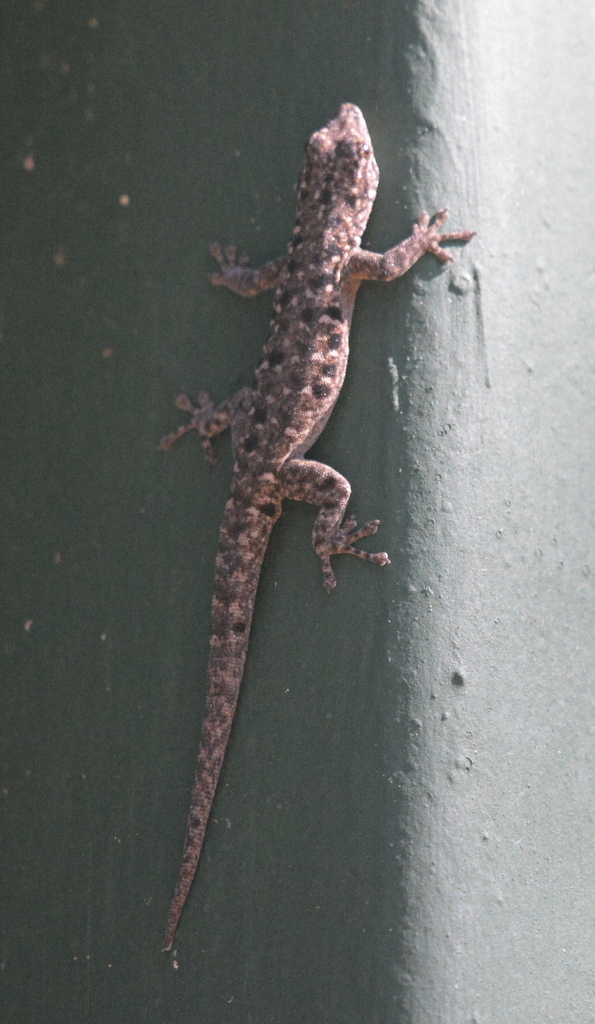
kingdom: Animalia
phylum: Chordata
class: Squamata
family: Gekkonidae
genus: Lygodactylus
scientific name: Lygodactylus stevensoni
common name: Stevenson's dwarf gecko
